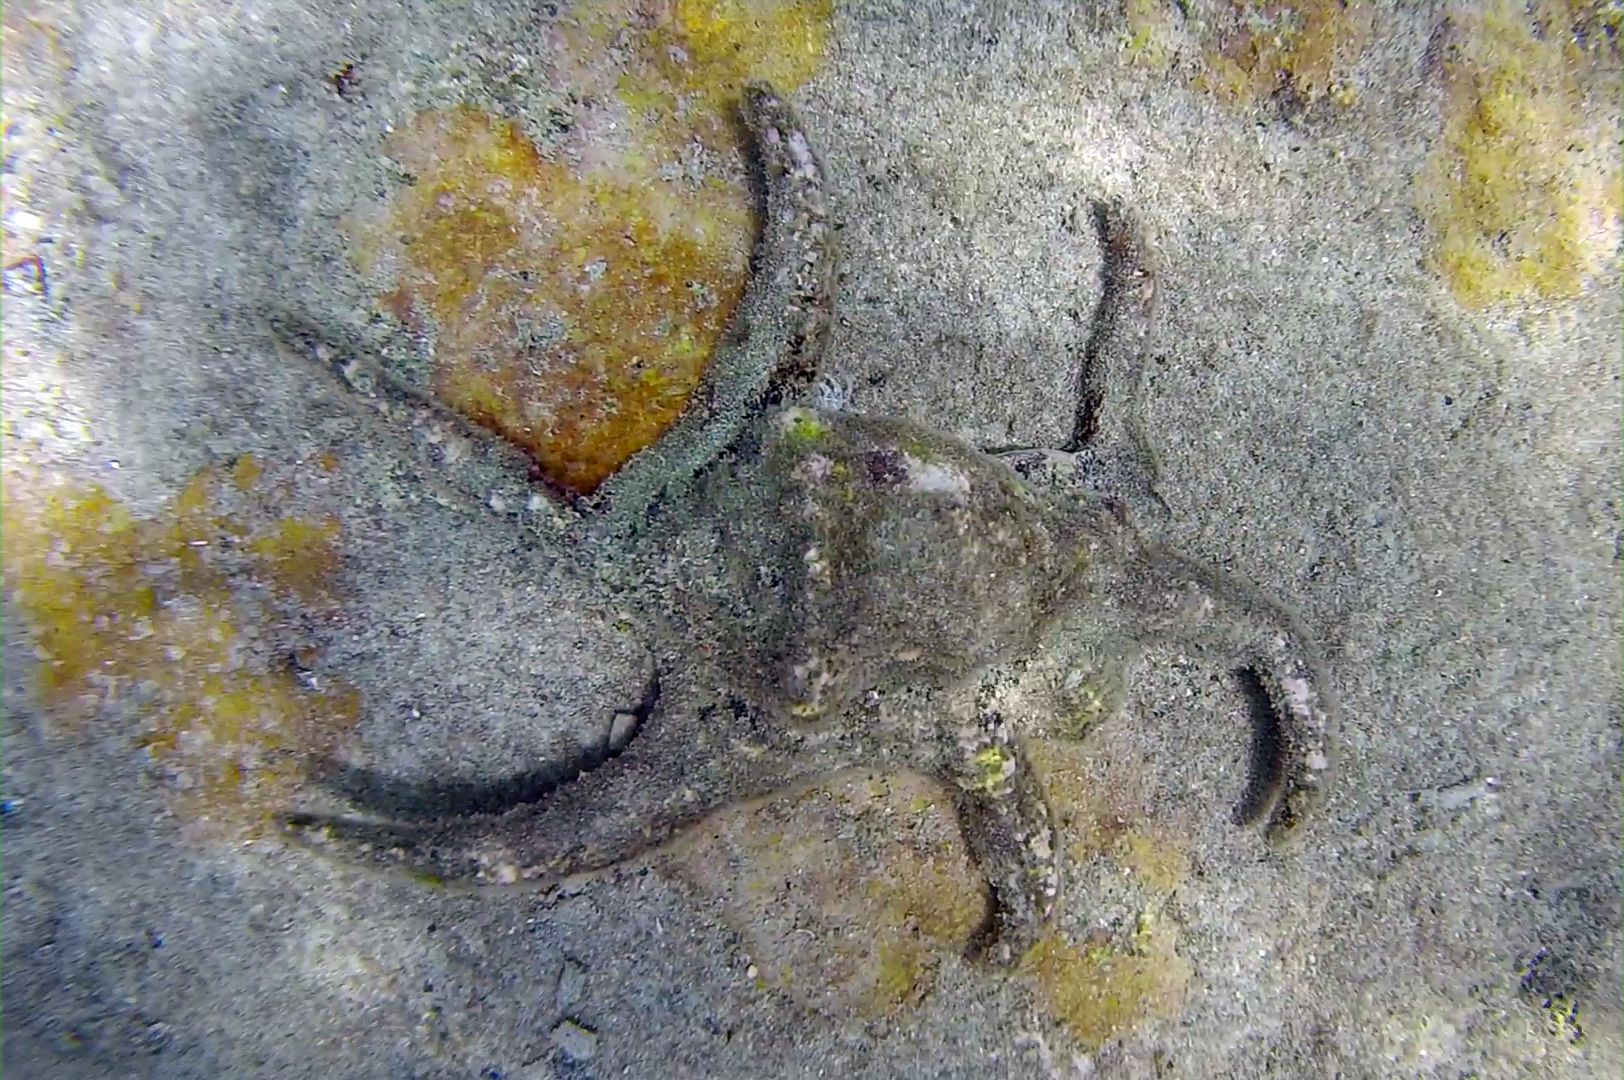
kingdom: Animalia
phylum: Mollusca
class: Gastropoda
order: Littorinimorpha
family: Strombidae
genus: Harpago
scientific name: Harpago chiragra
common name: Chiragra spider conch
